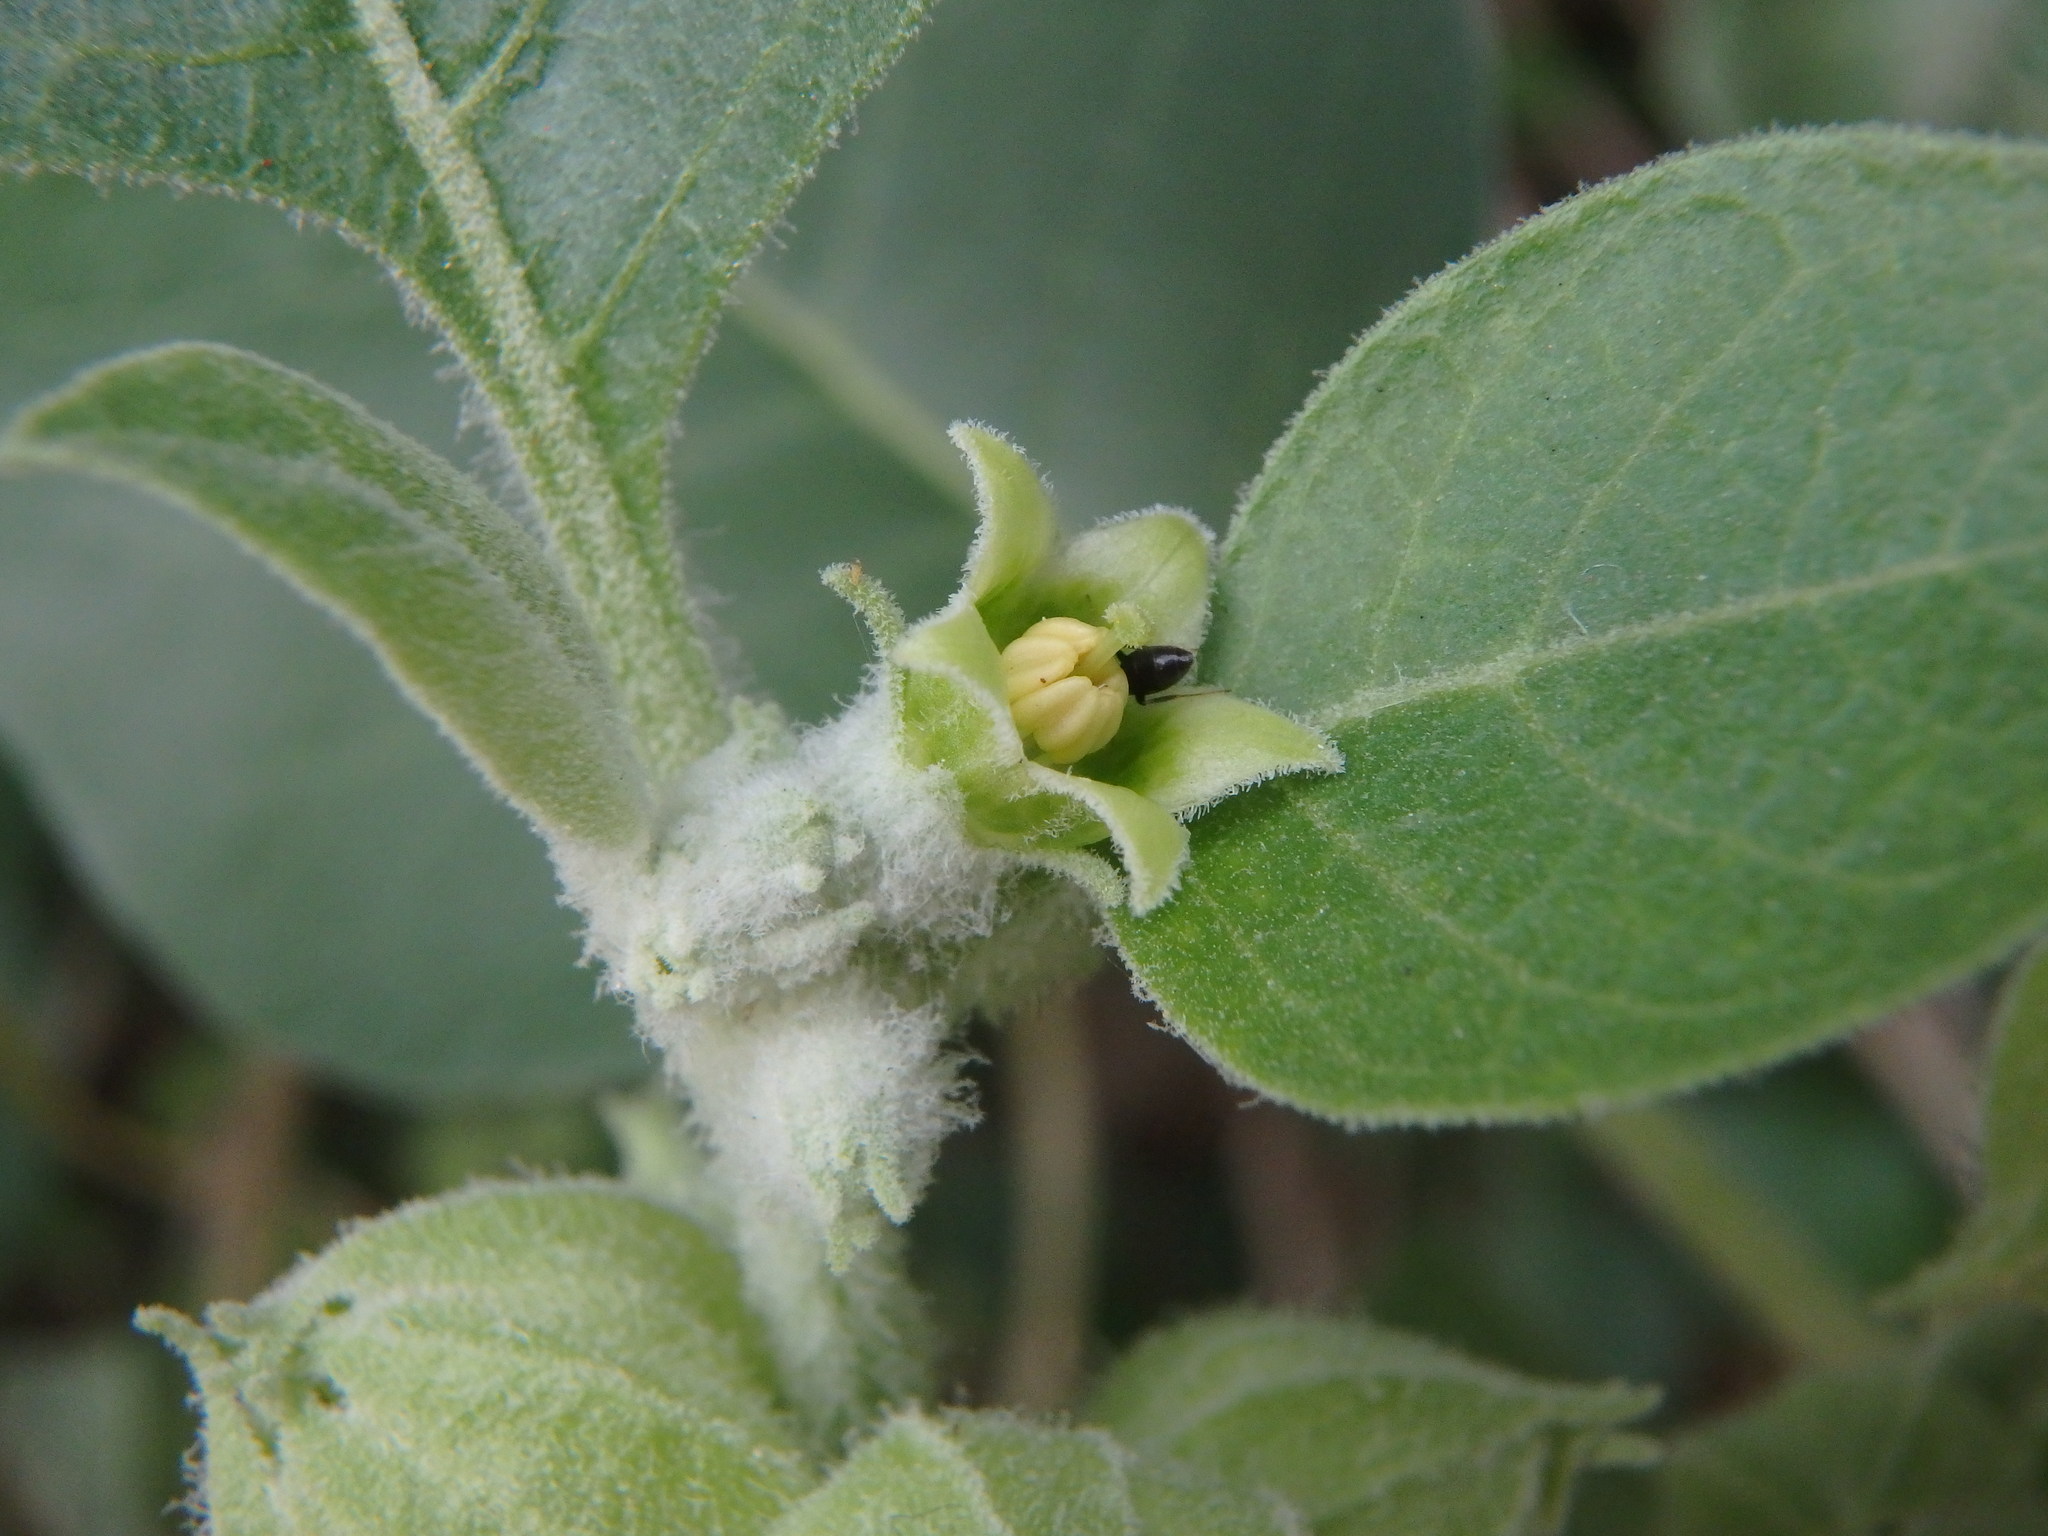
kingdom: Plantae
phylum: Tracheophyta
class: Magnoliopsida
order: Solanales
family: Solanaceae
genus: Withania
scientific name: Withania somnifera
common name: Winter-cherry
